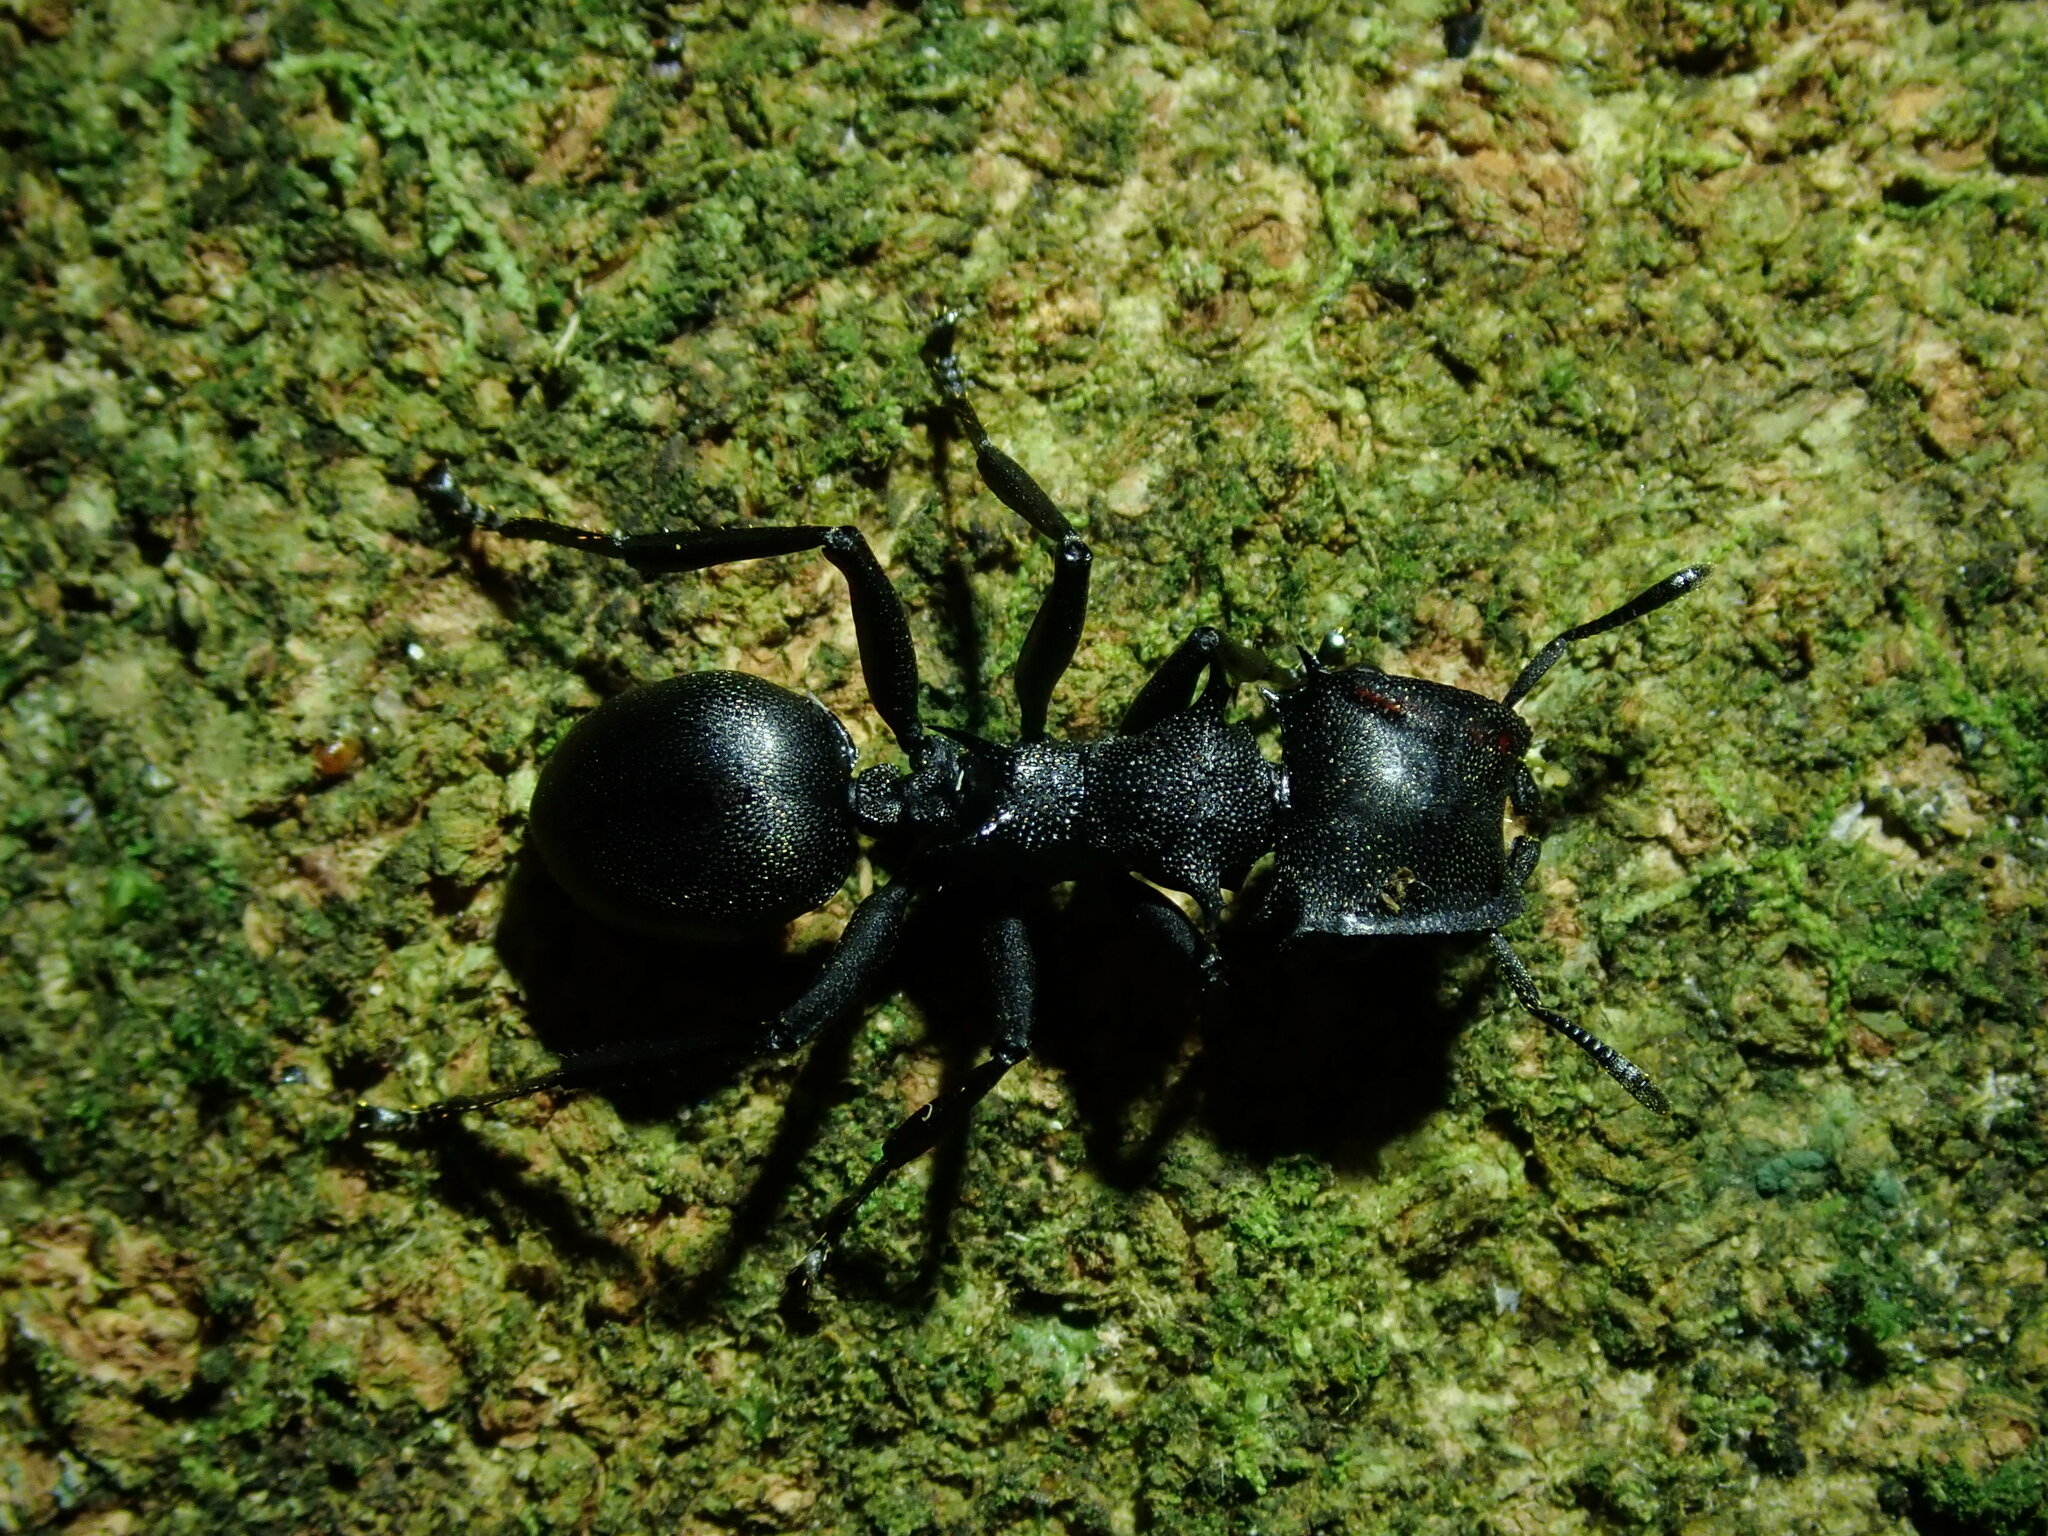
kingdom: Animalia
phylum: Arthropoda
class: Insecta
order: Hymenoptera
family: Formicidae
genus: Cephalotes
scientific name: Cephalotes atratus
